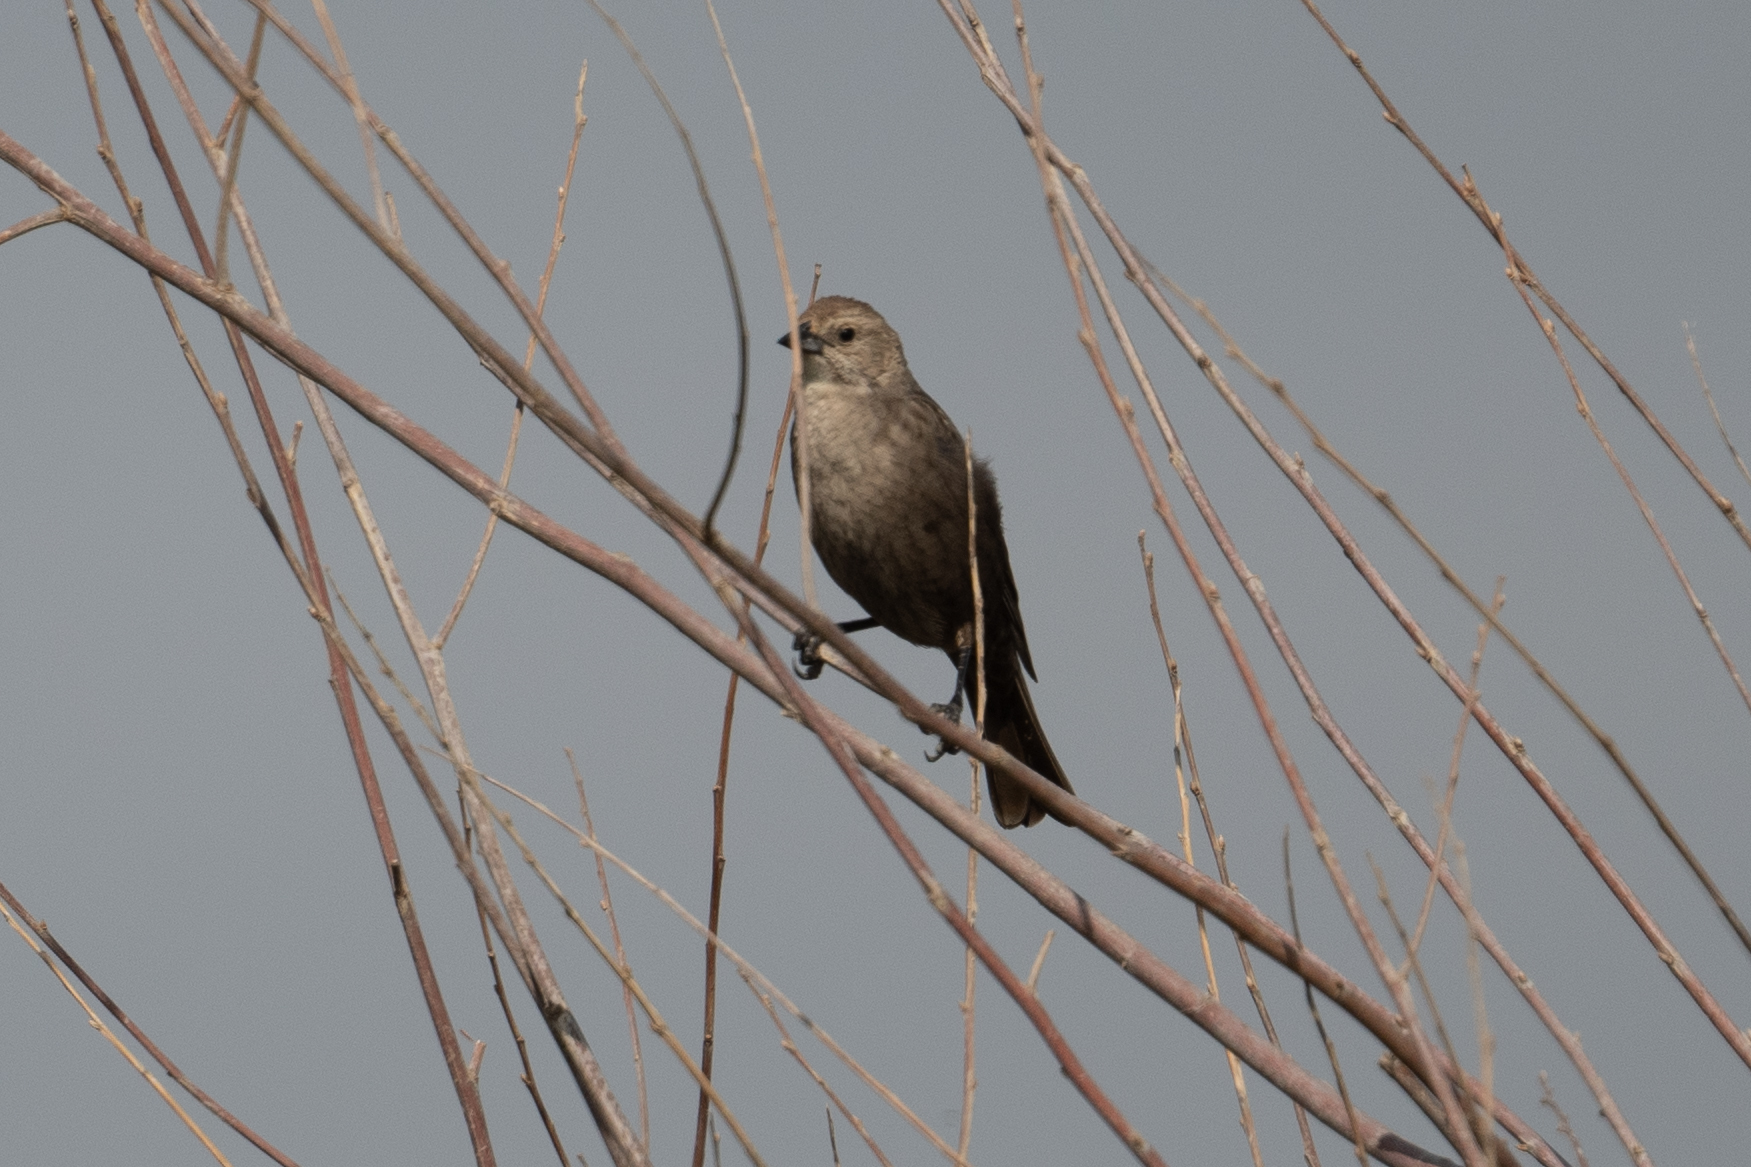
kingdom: Animalia
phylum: Chordata
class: Aves
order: Passeriformes
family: Icteridae
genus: Molothrus
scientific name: Molothrus ater
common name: Brown-headed cowbird
